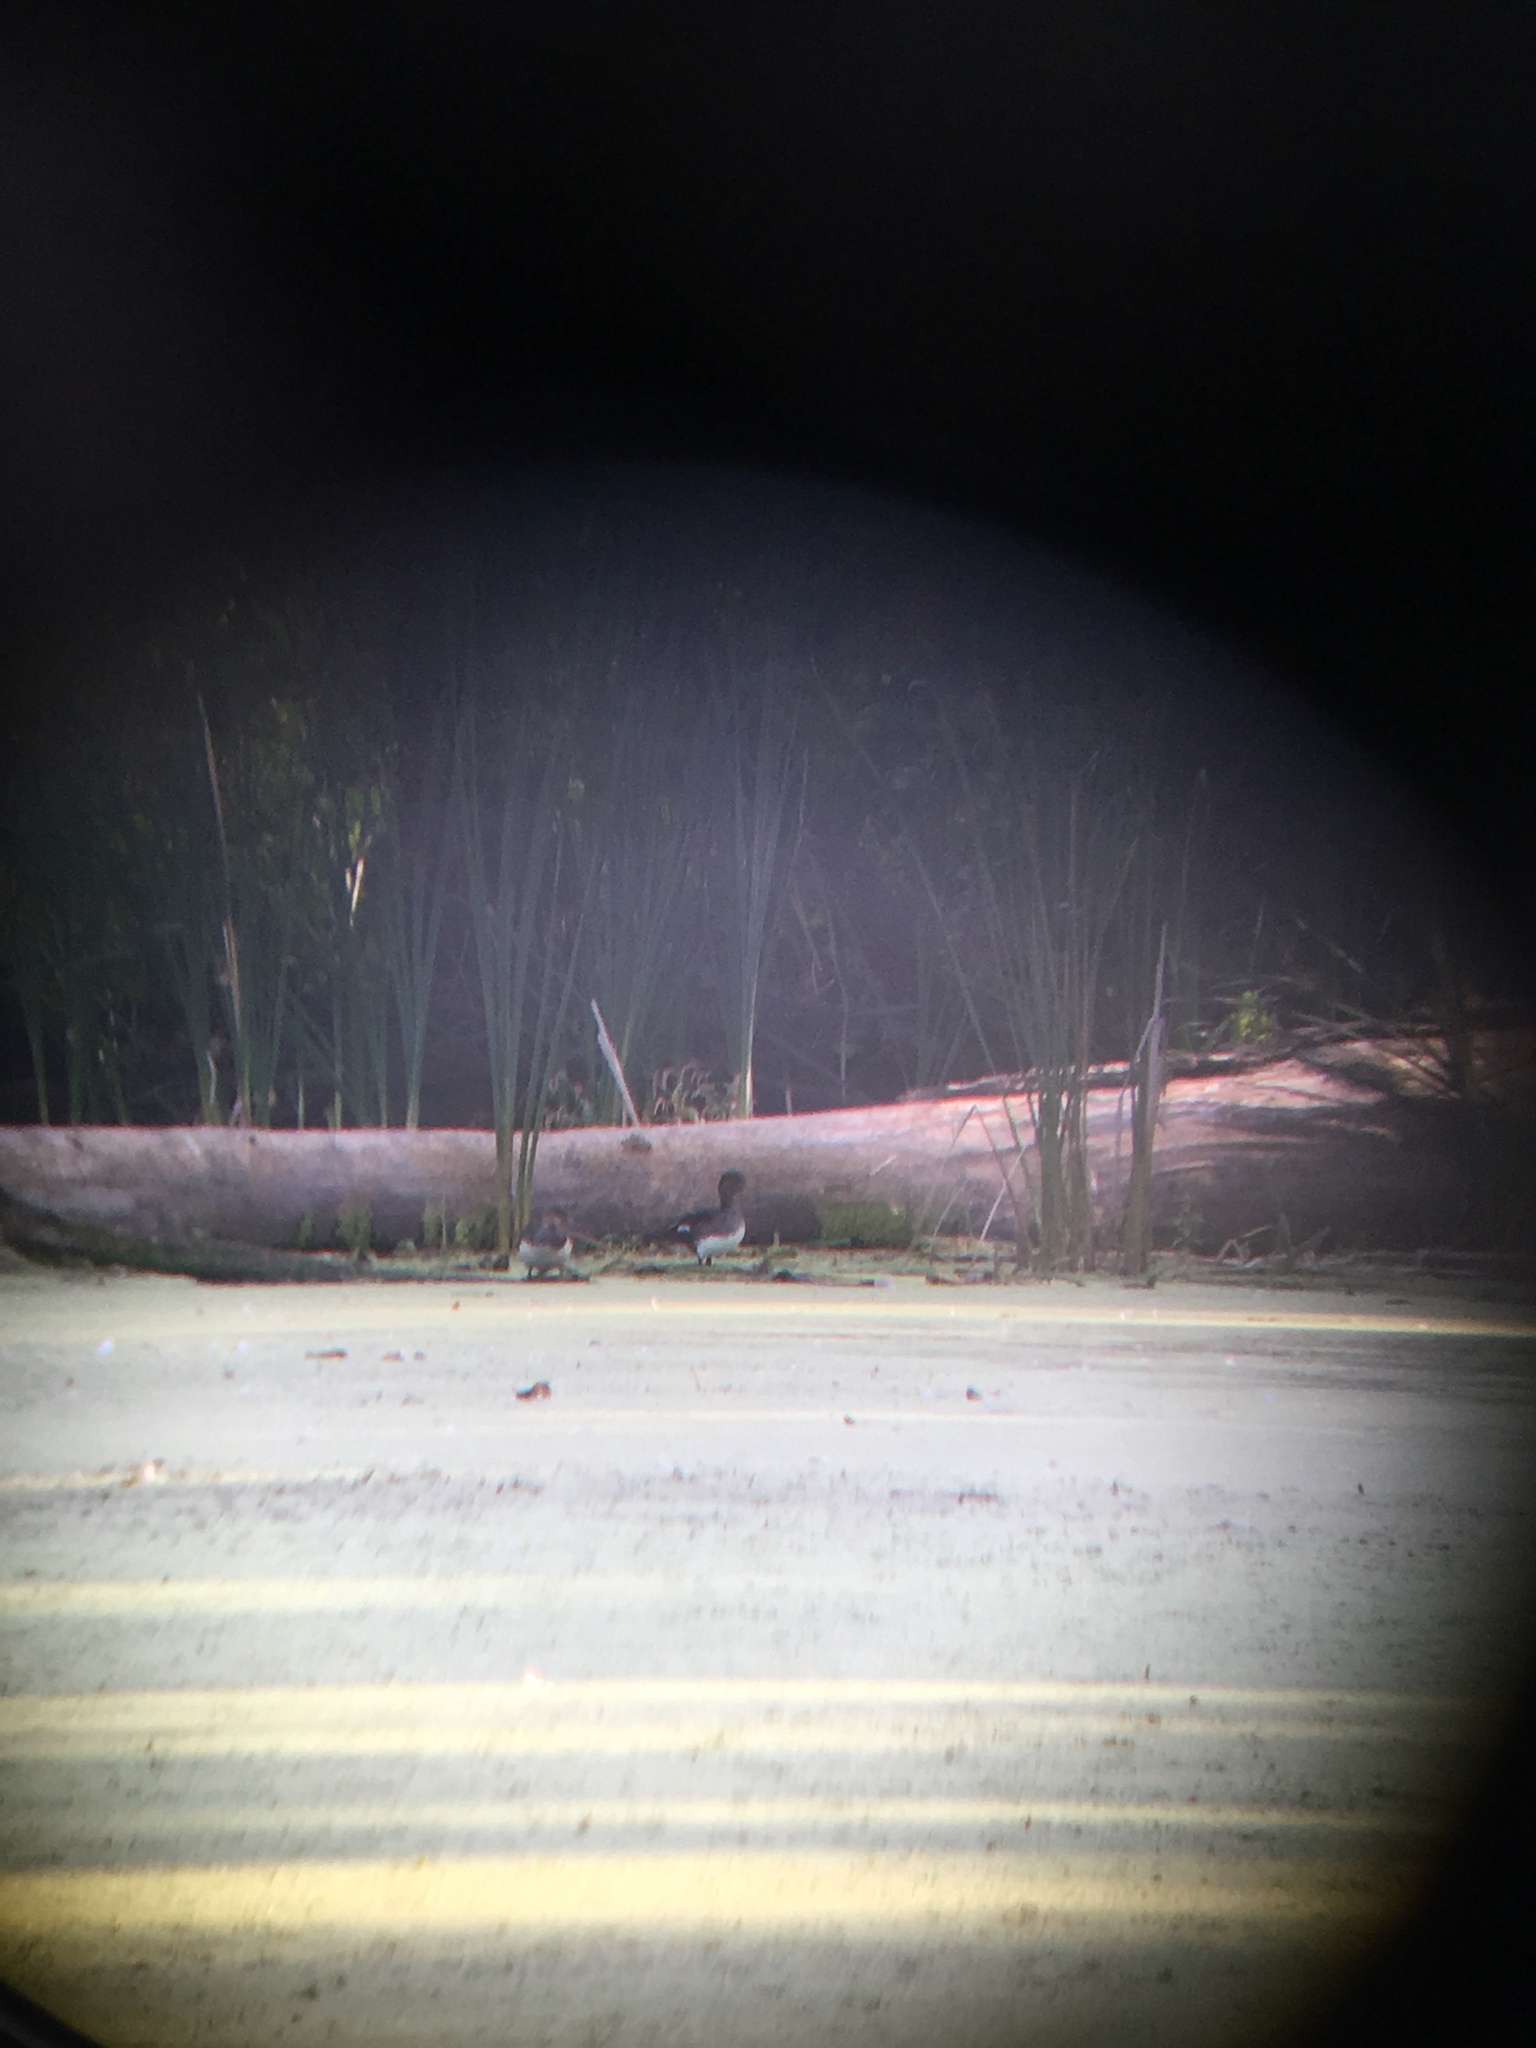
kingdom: Animalia
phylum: Chordata
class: Aves
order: Anseriformes
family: Anatidae
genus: Lophodytes
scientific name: Lophodytes cucullatus
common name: Hooded merganser
